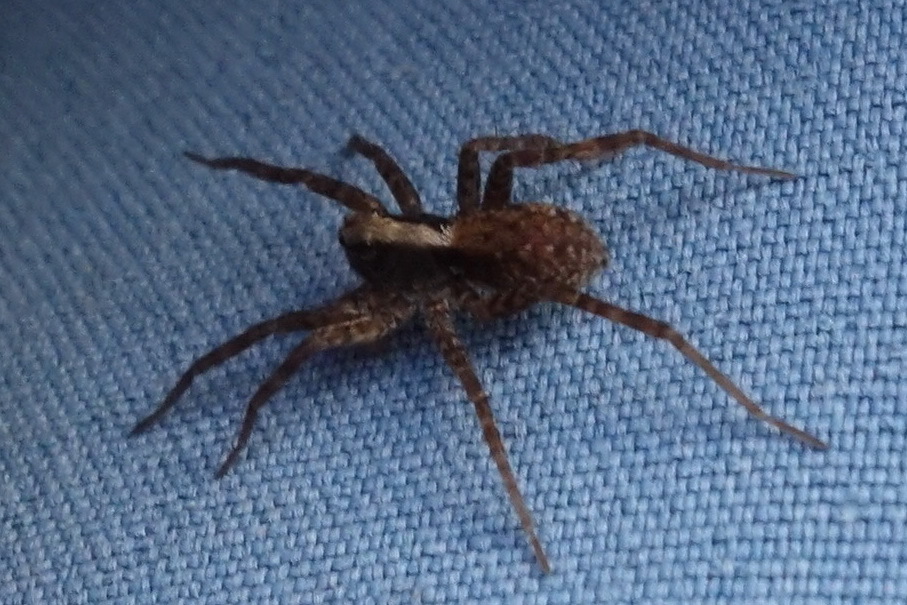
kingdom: Animalia
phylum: Arthropoda
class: Arachnida
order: Araneae
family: Lycosidae
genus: Pardosa
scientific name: Pardosa
